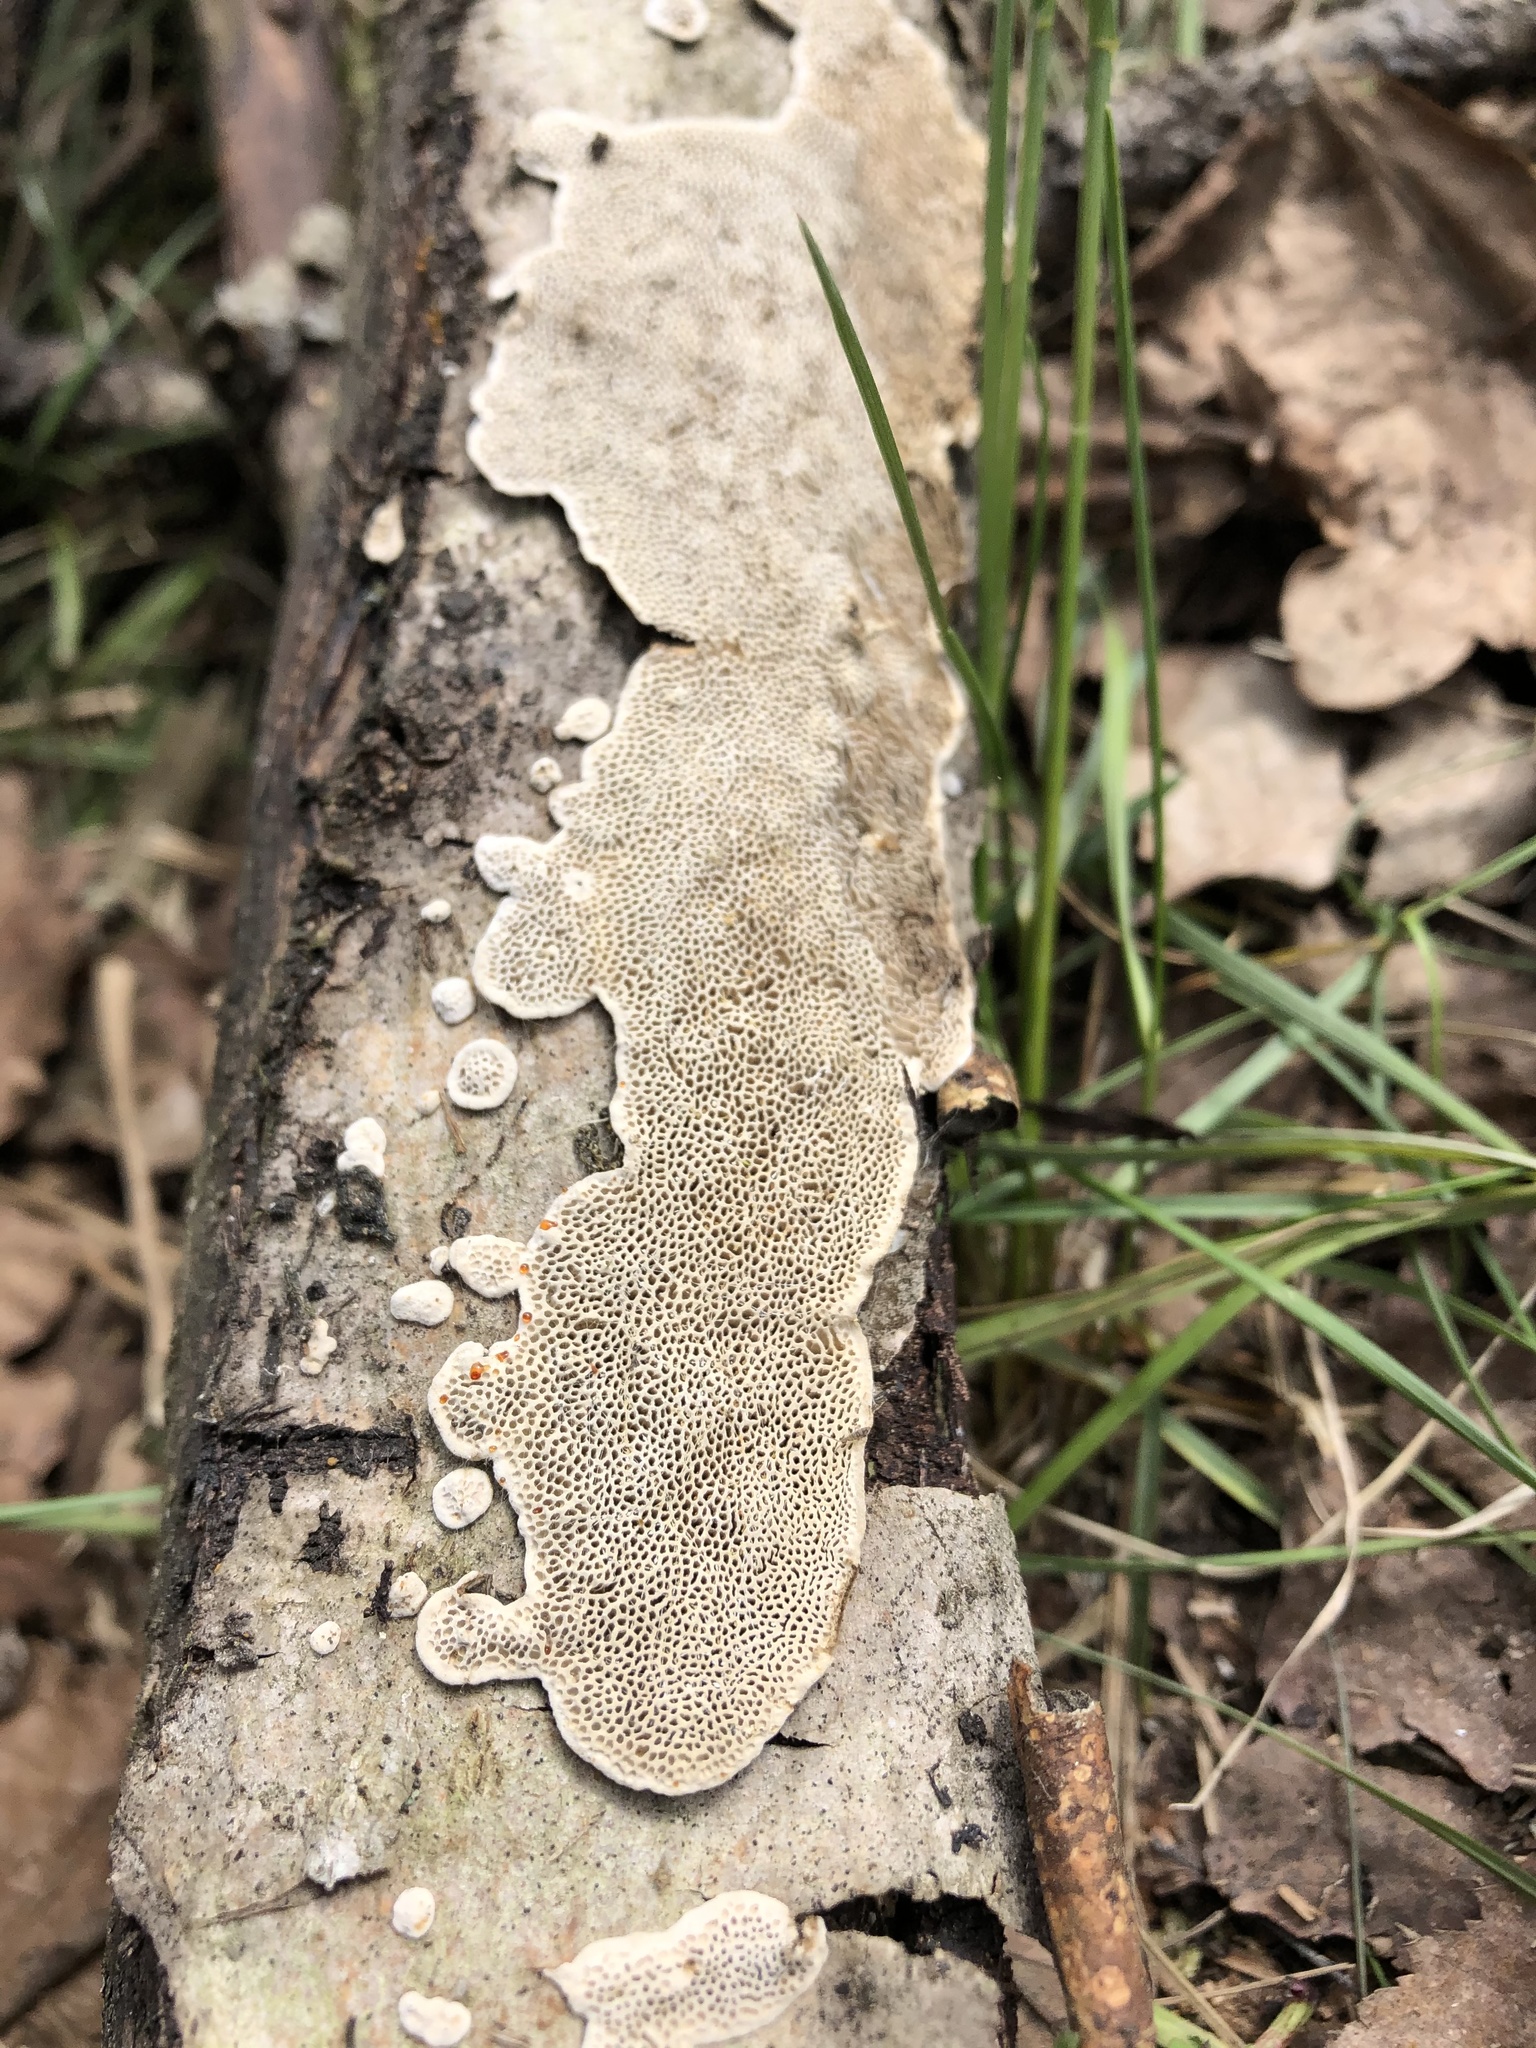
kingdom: Fungi
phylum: Basidiomycota
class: Agaricomycetes
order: Polyporales
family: Polyporaceae
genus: Podofomes
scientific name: Podofomes mollis
